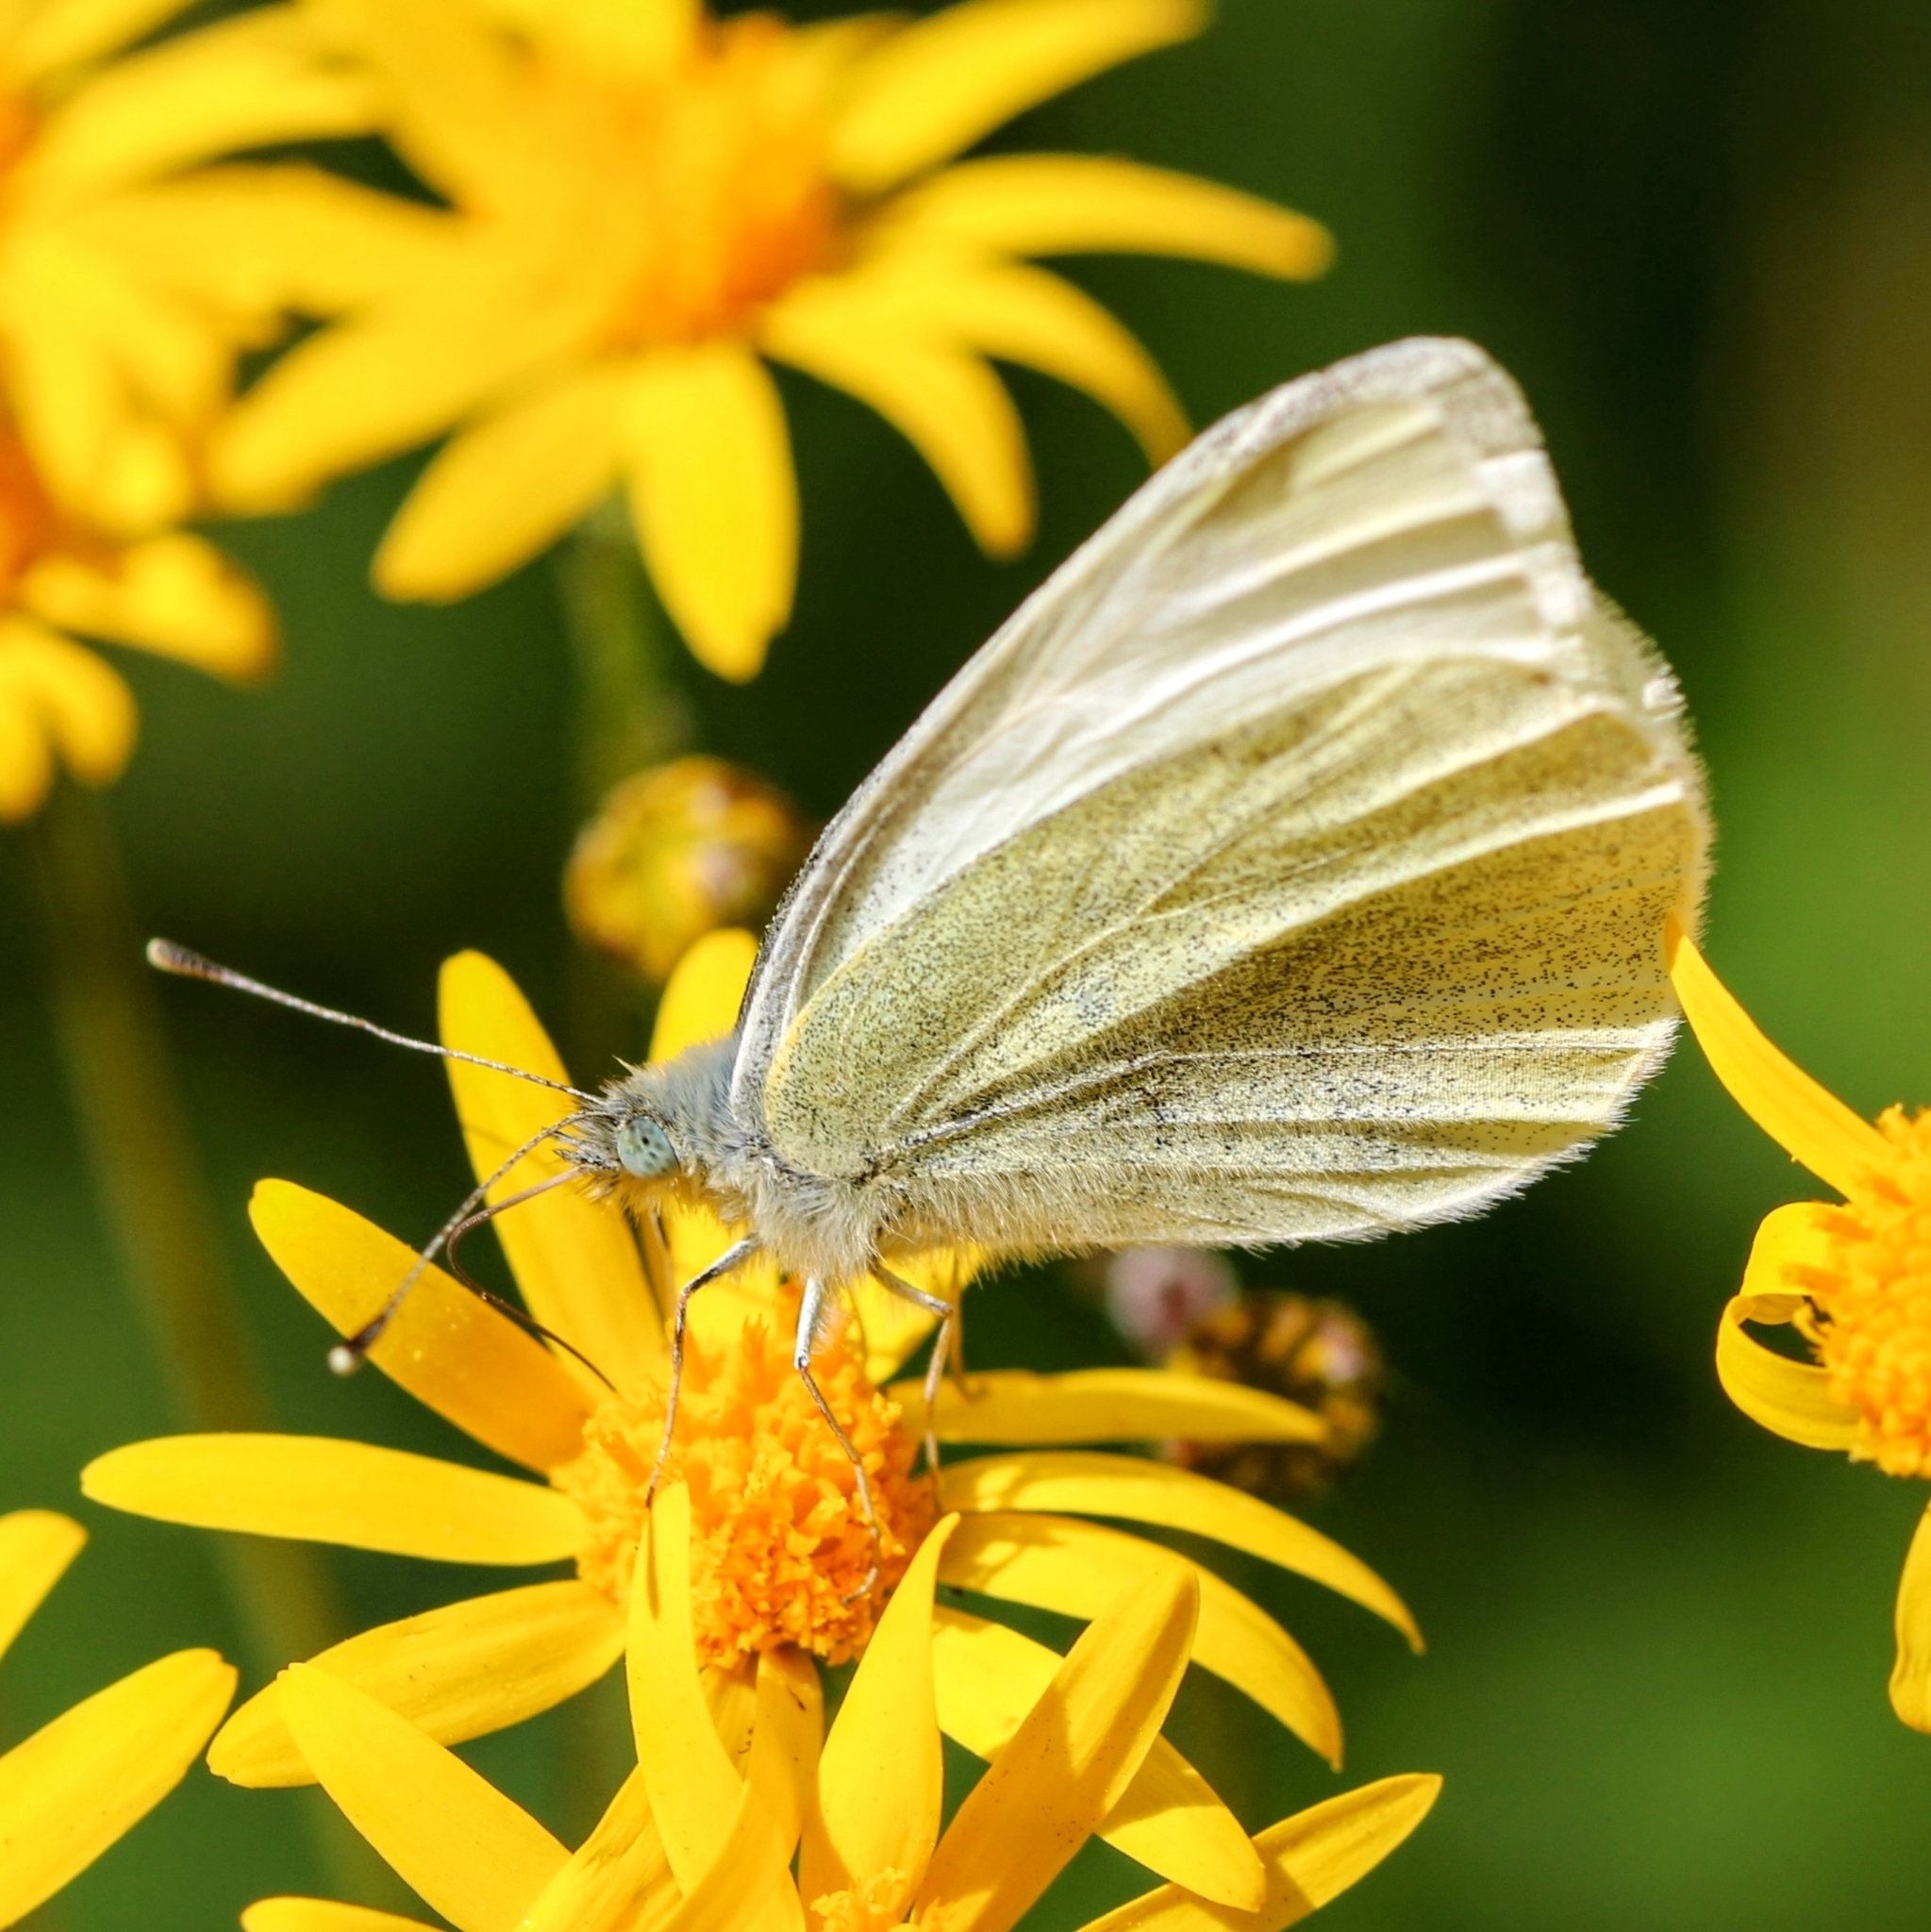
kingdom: Animalia
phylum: Arthropoda
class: Insecta
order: Lepidoptera
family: Pieridae
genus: Pieris
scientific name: Pieris rapae
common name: Small white
